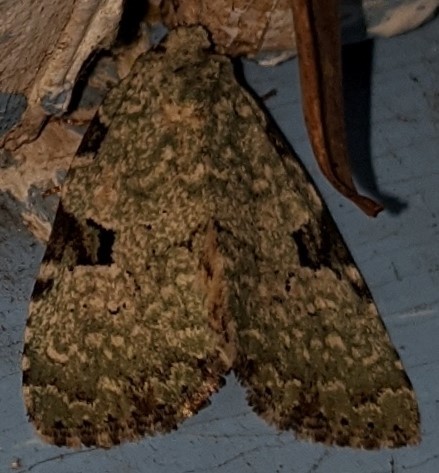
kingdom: Animalia
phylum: Arthropoda
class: Insecta
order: Lepidoptera
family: Noctuidae
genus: Leuconycta
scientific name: Leuconycta diphteroides
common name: Green leuconycta moth
